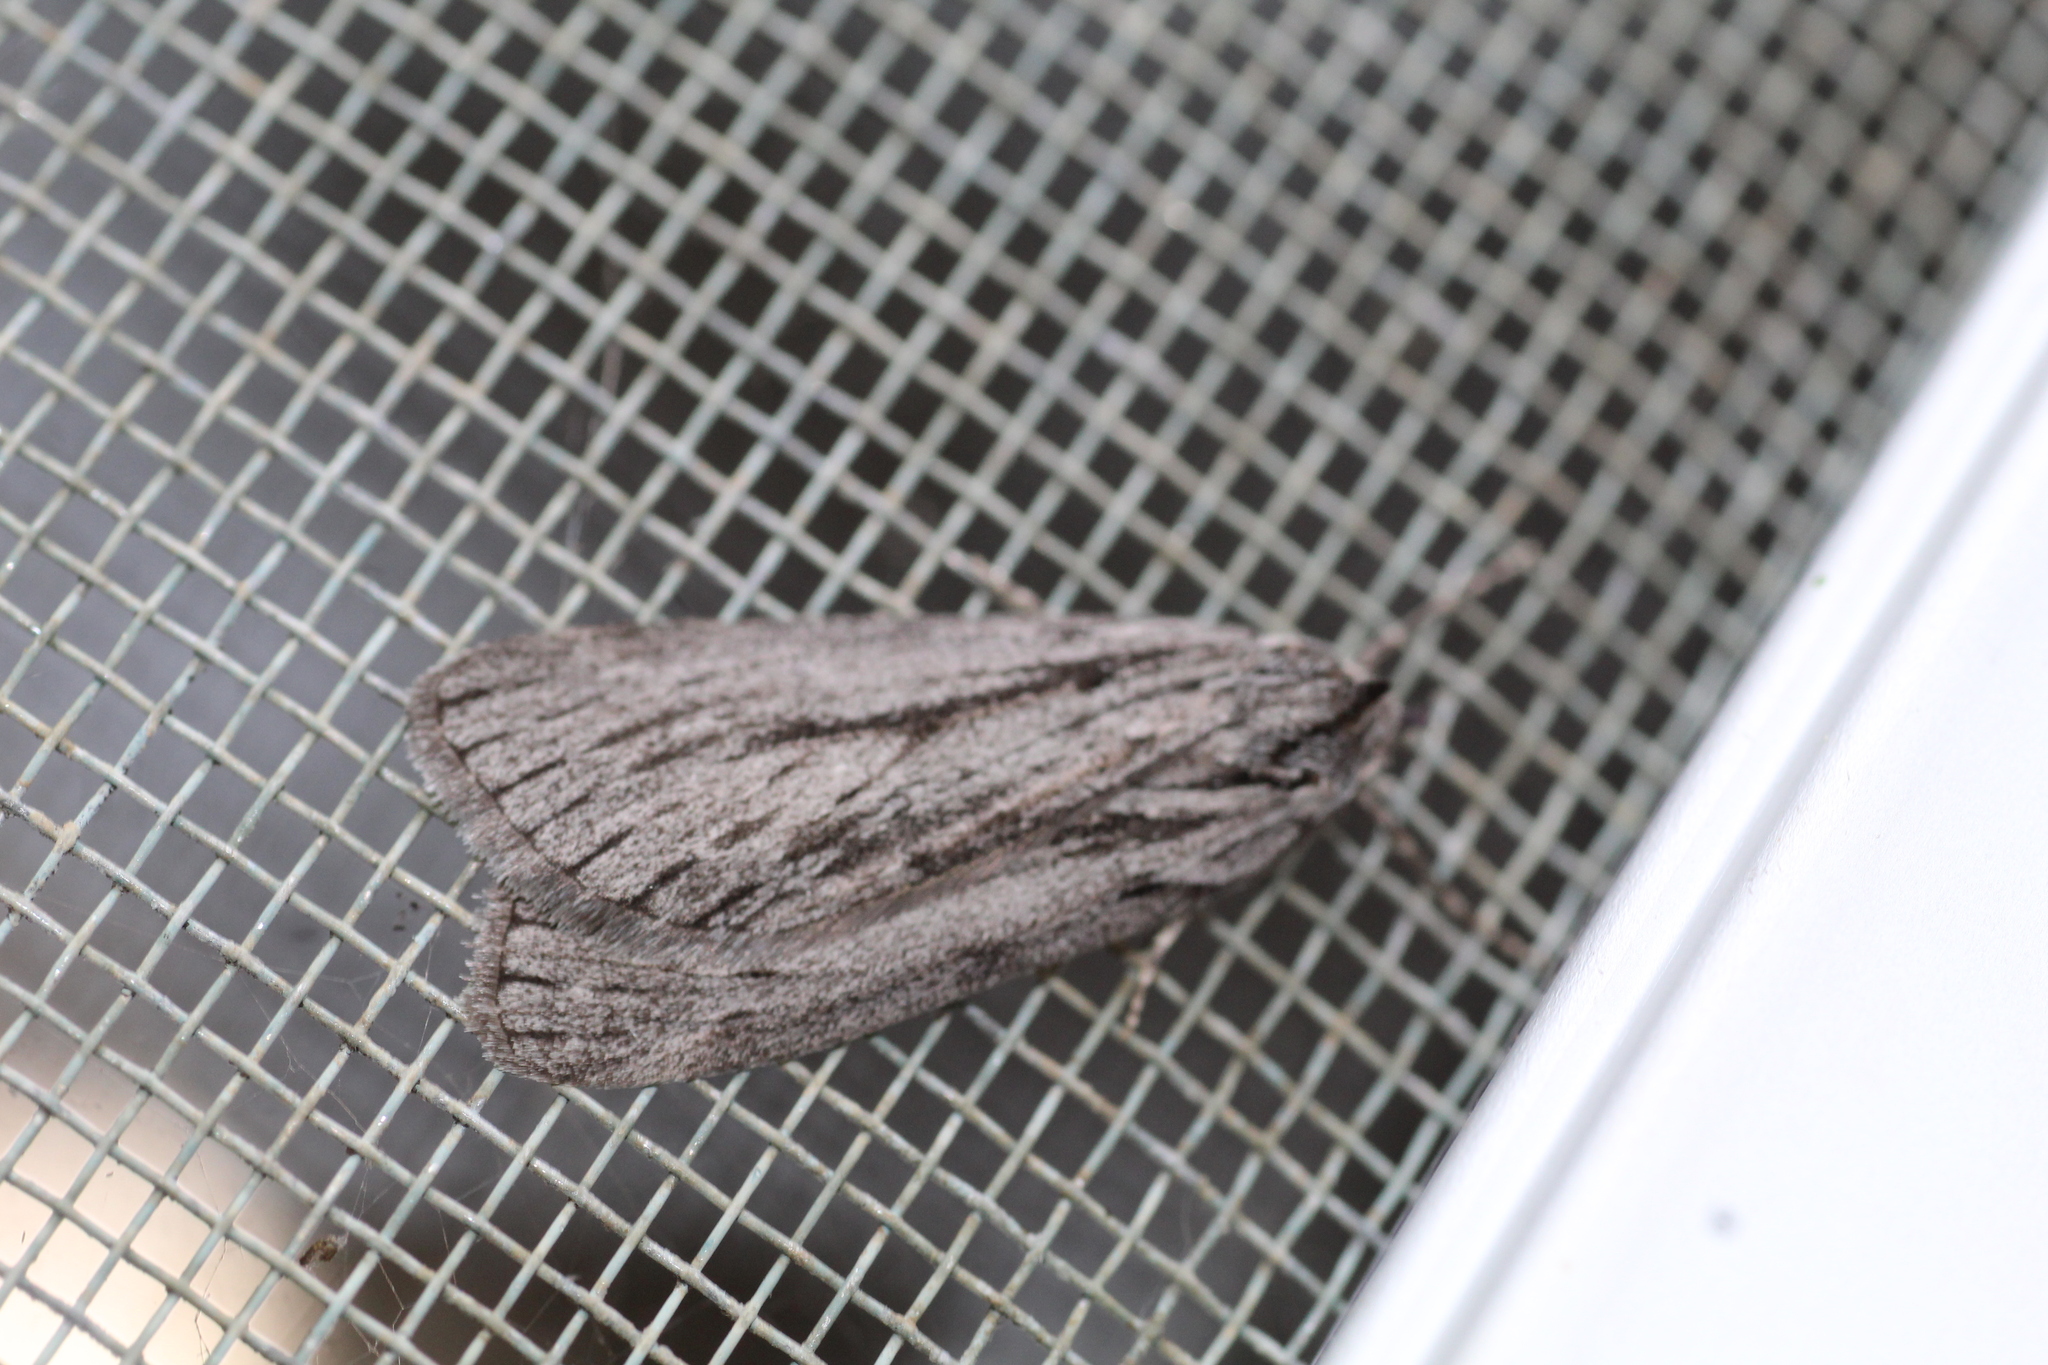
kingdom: Animalia
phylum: Arthropoda
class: Insecta
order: Lepidoptera
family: Geometridae
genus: Ciampa
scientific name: Ciampa melanostrepta
